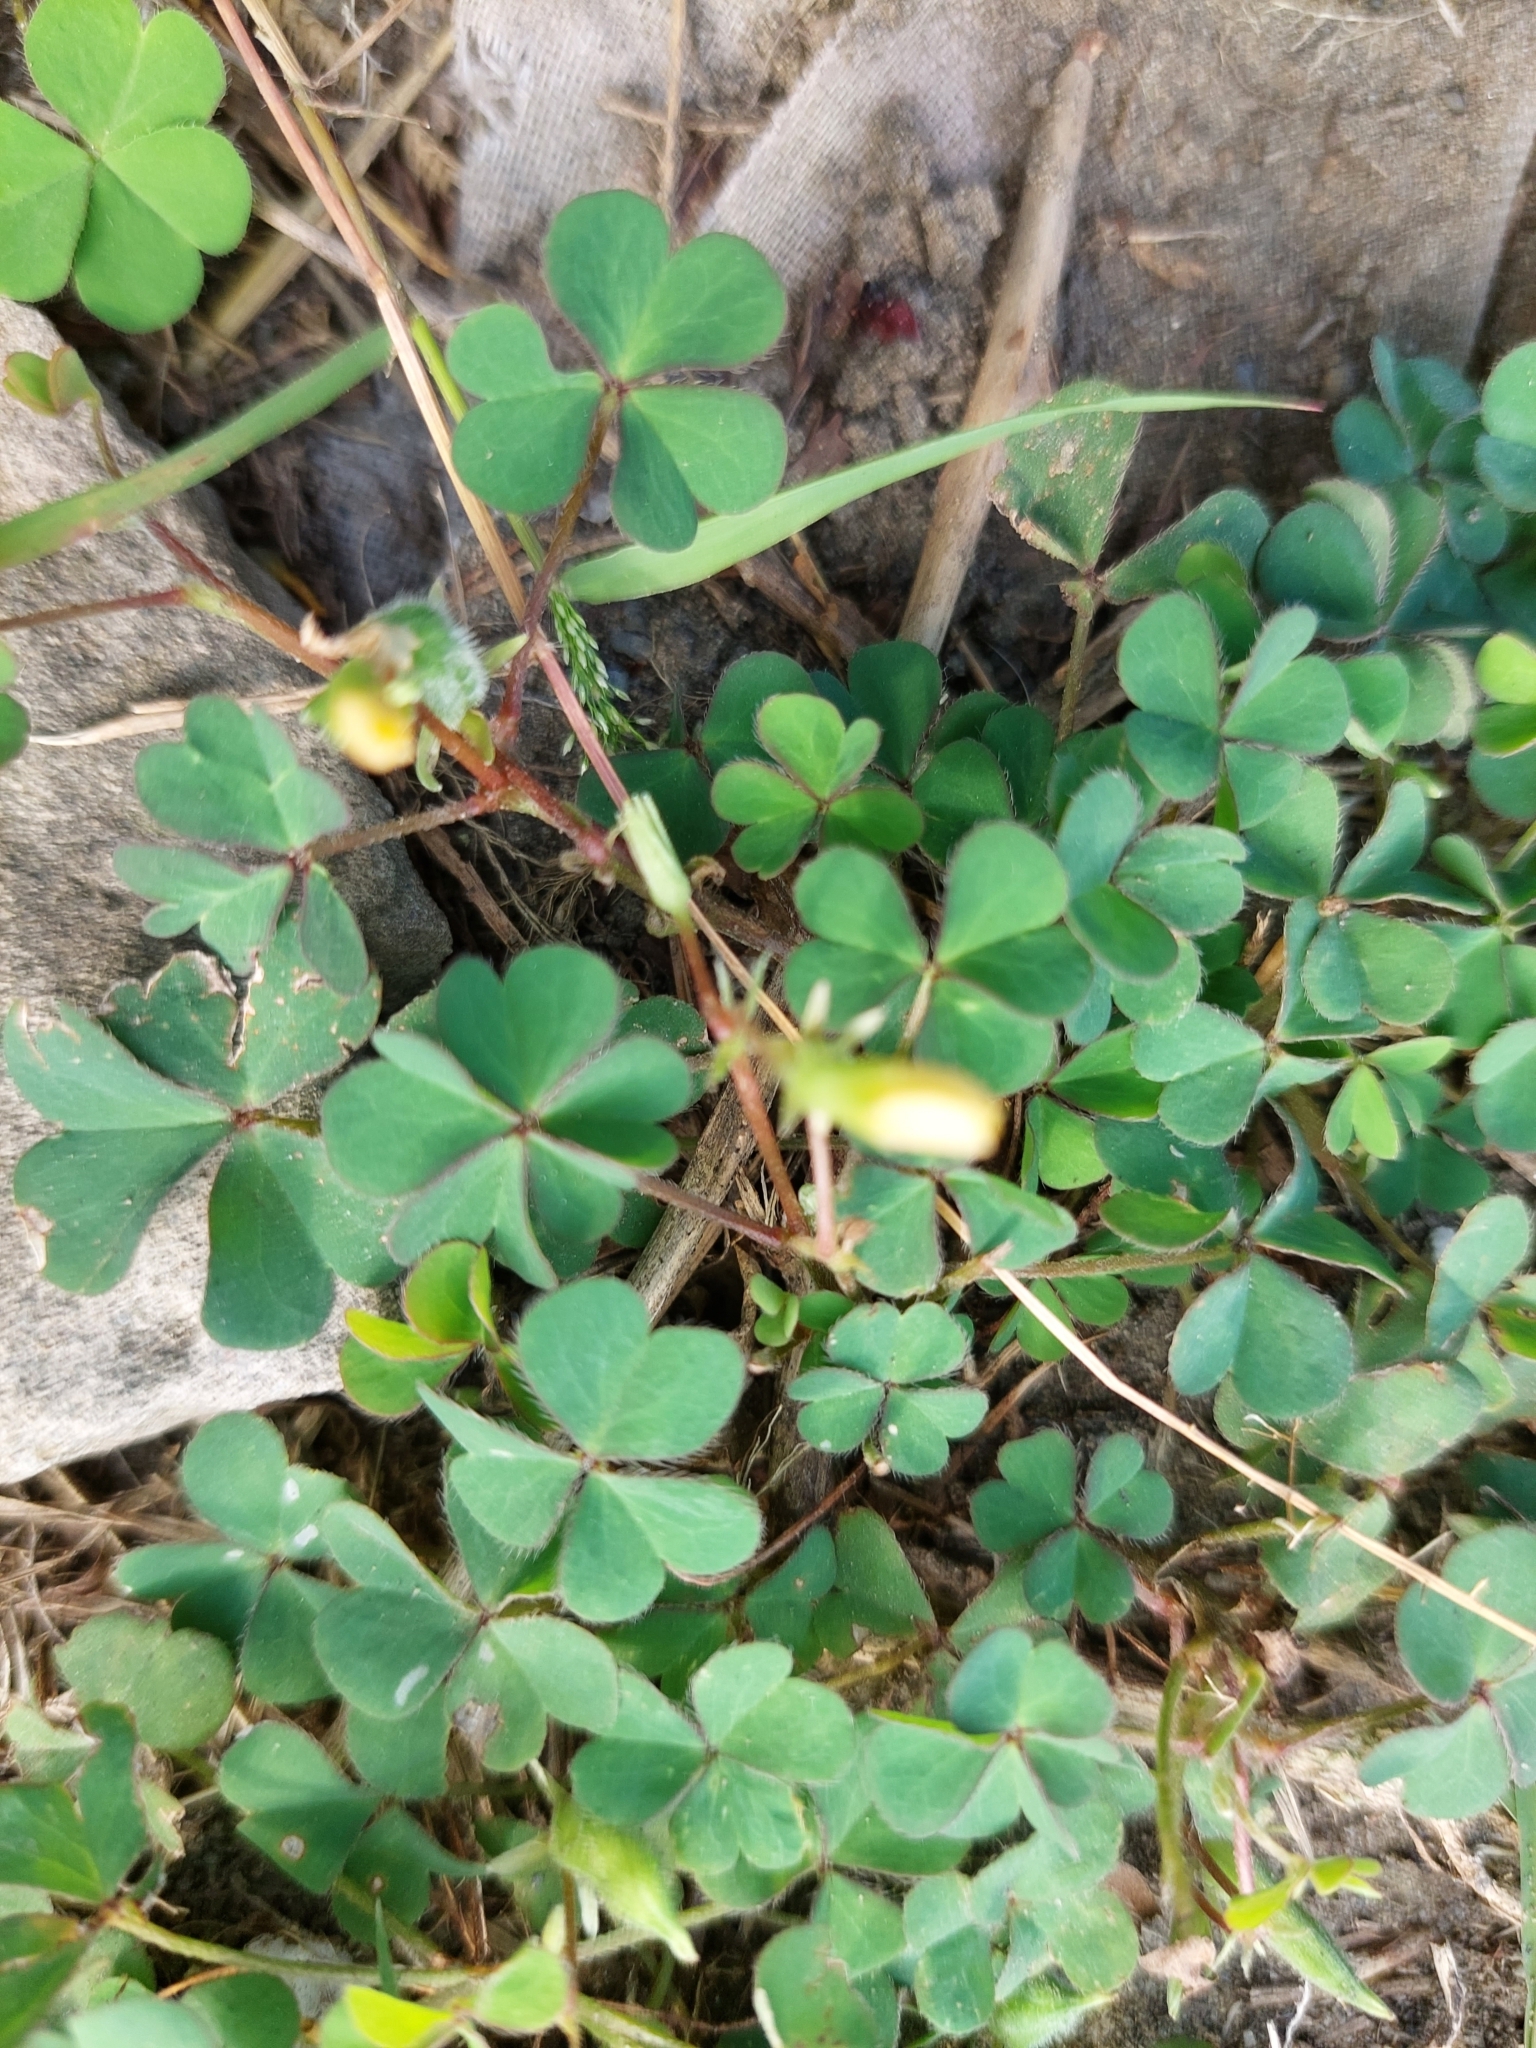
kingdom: Plantae
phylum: Tracheophyta
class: Magnoliopsida
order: Oxalidales
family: Oxalidaceae
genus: Oxalis
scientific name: Oxalis corniculata
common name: Procumbent yellow-sorrel
